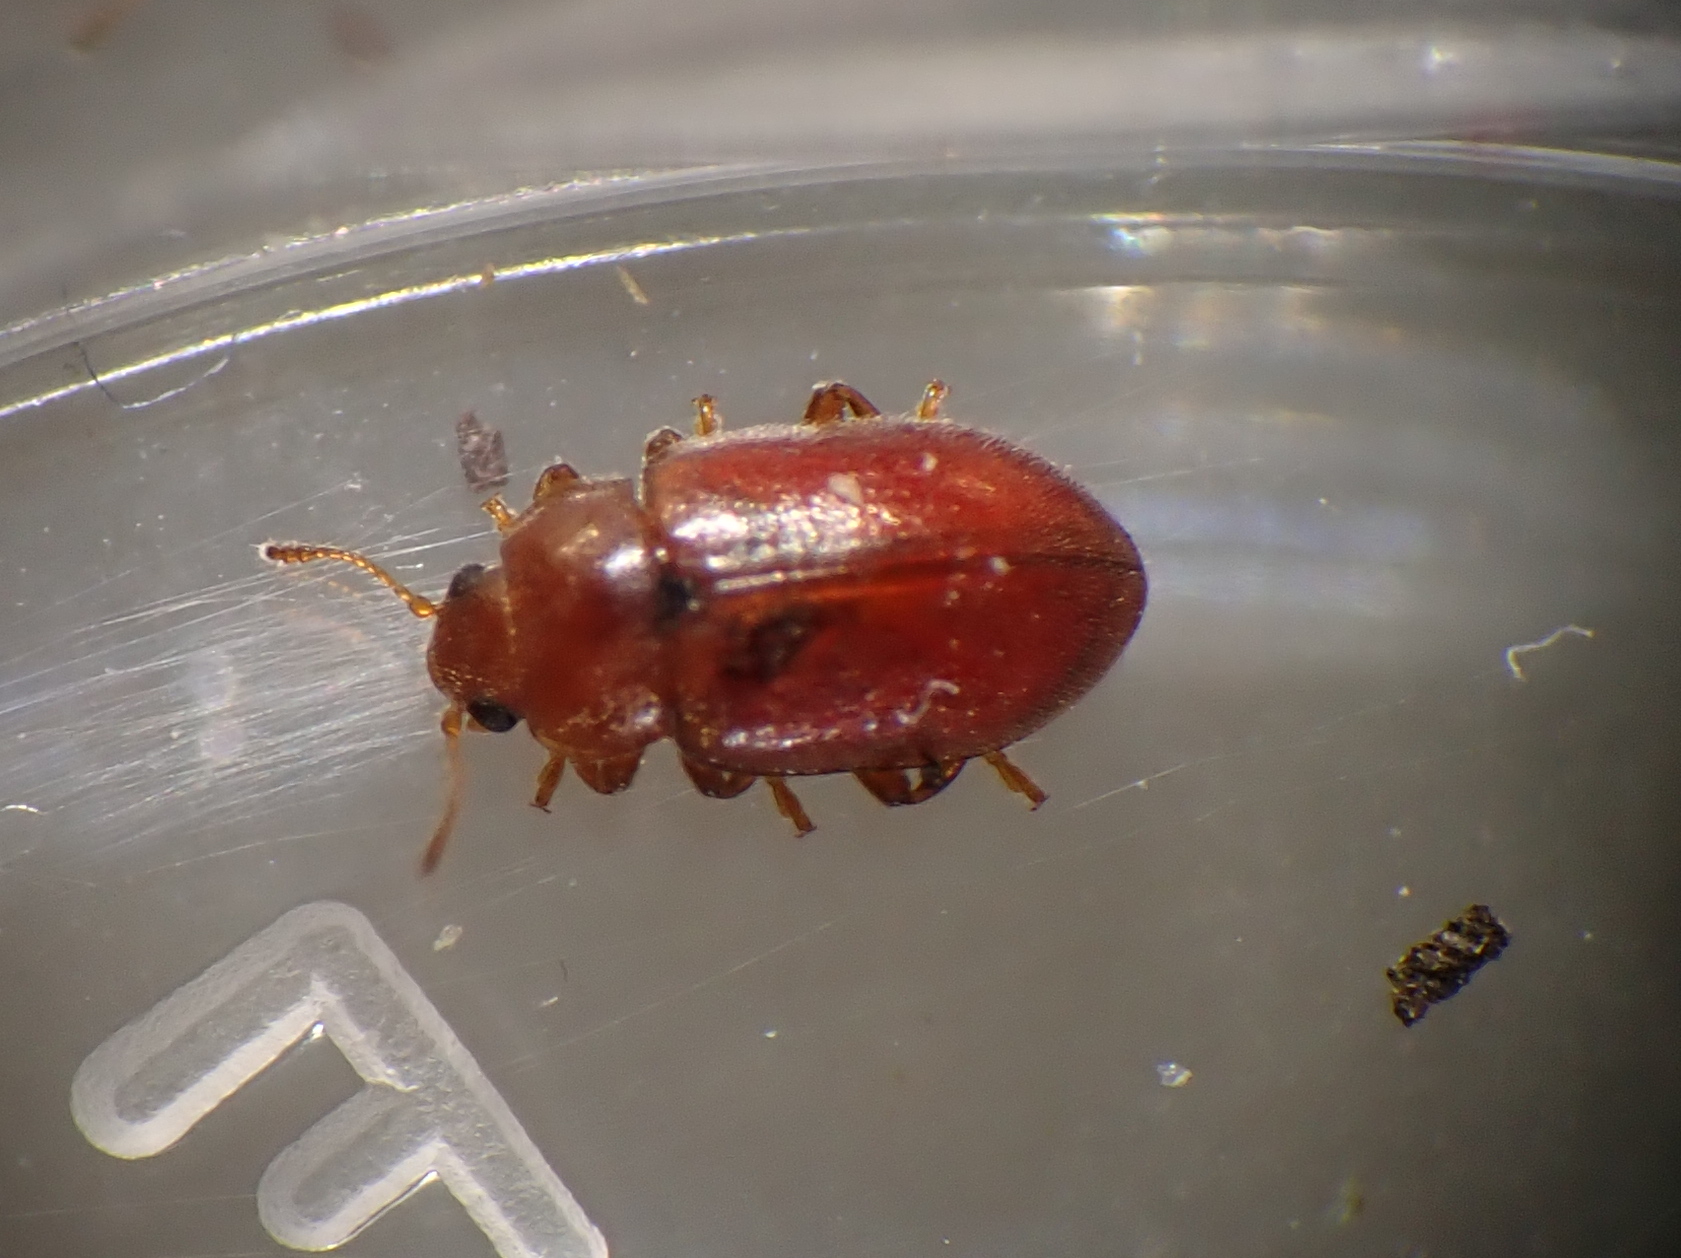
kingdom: Animalia
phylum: Arthropoda
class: Insecta
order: Coleoptera
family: Coccinellidae
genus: Coccidula
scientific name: Coccidula rufa
